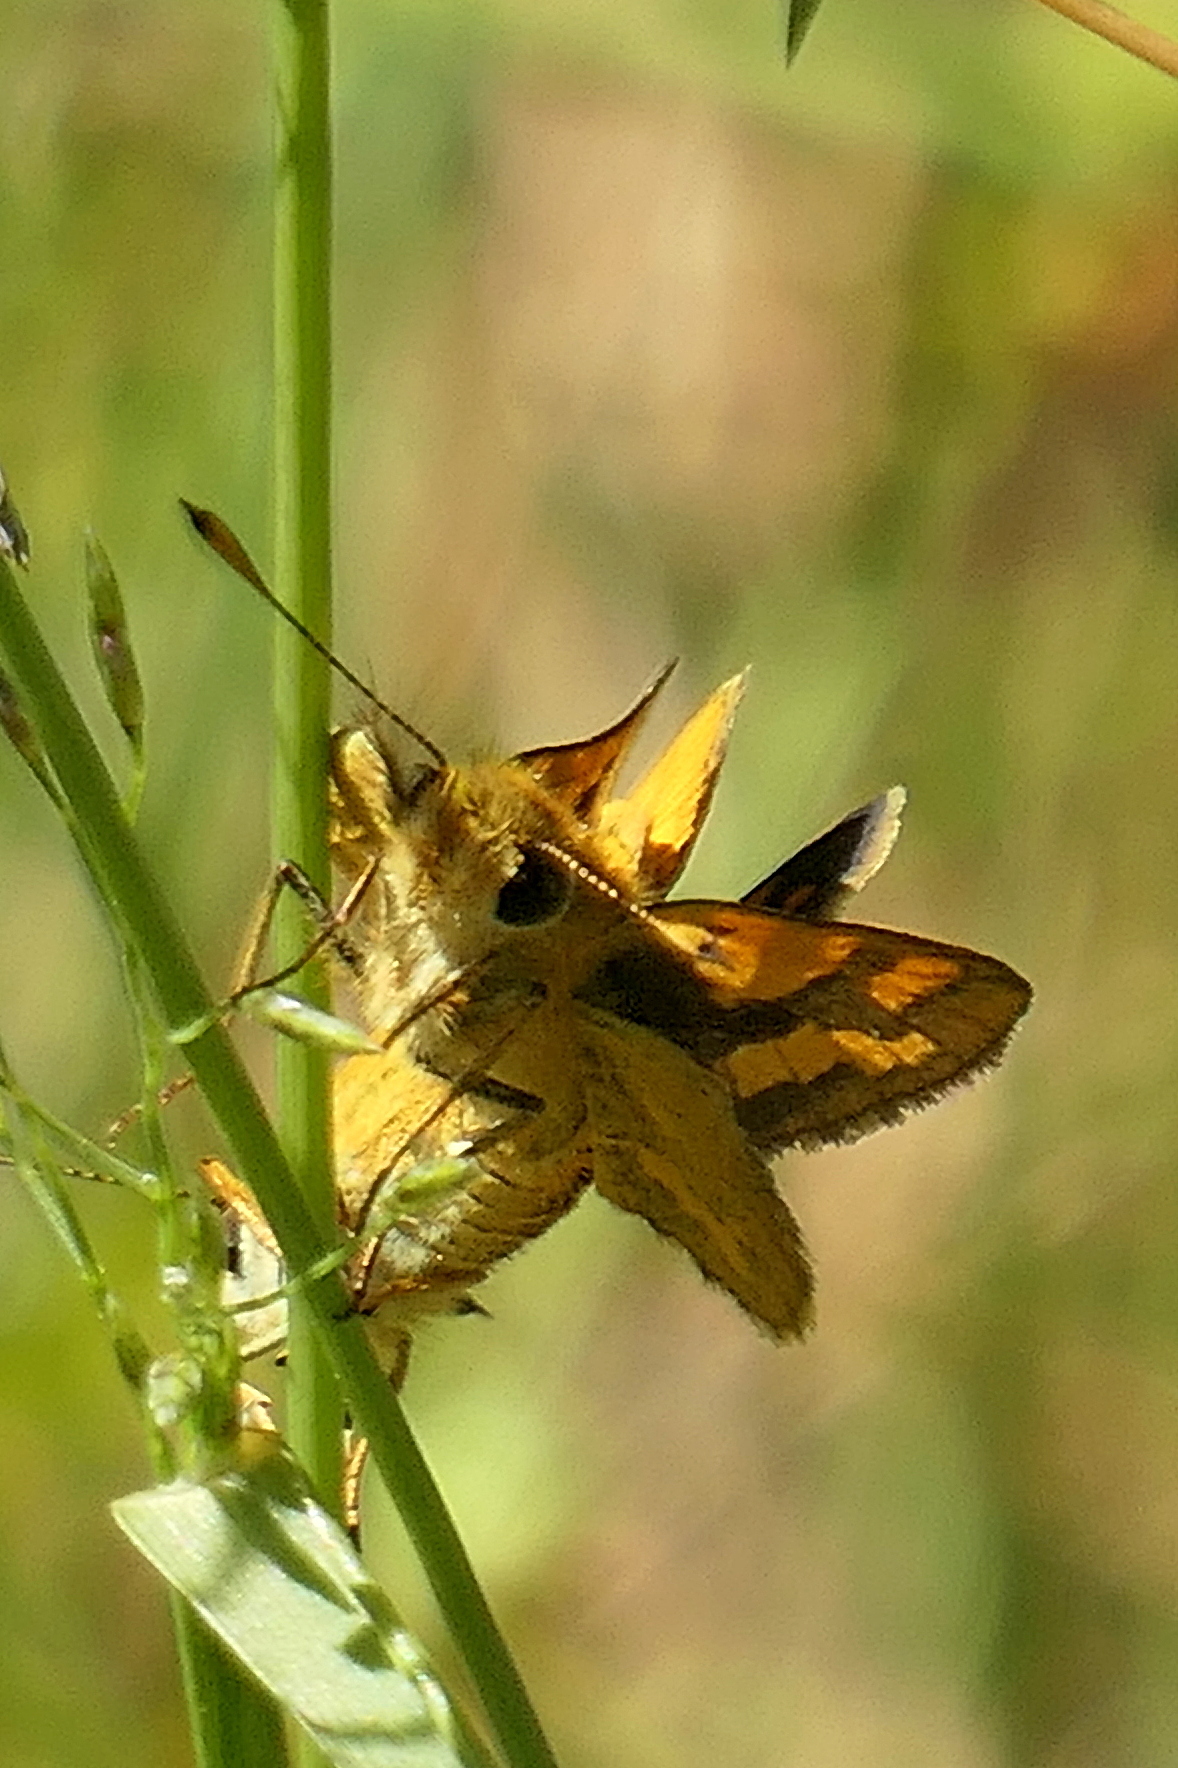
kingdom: Animalia
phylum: Arthropoda
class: Insecta
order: Lepidoptera
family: Hesperiidae
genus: Ocybadistes
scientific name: Ocybadistes flavovittata
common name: Narrow-brand grass-dart
